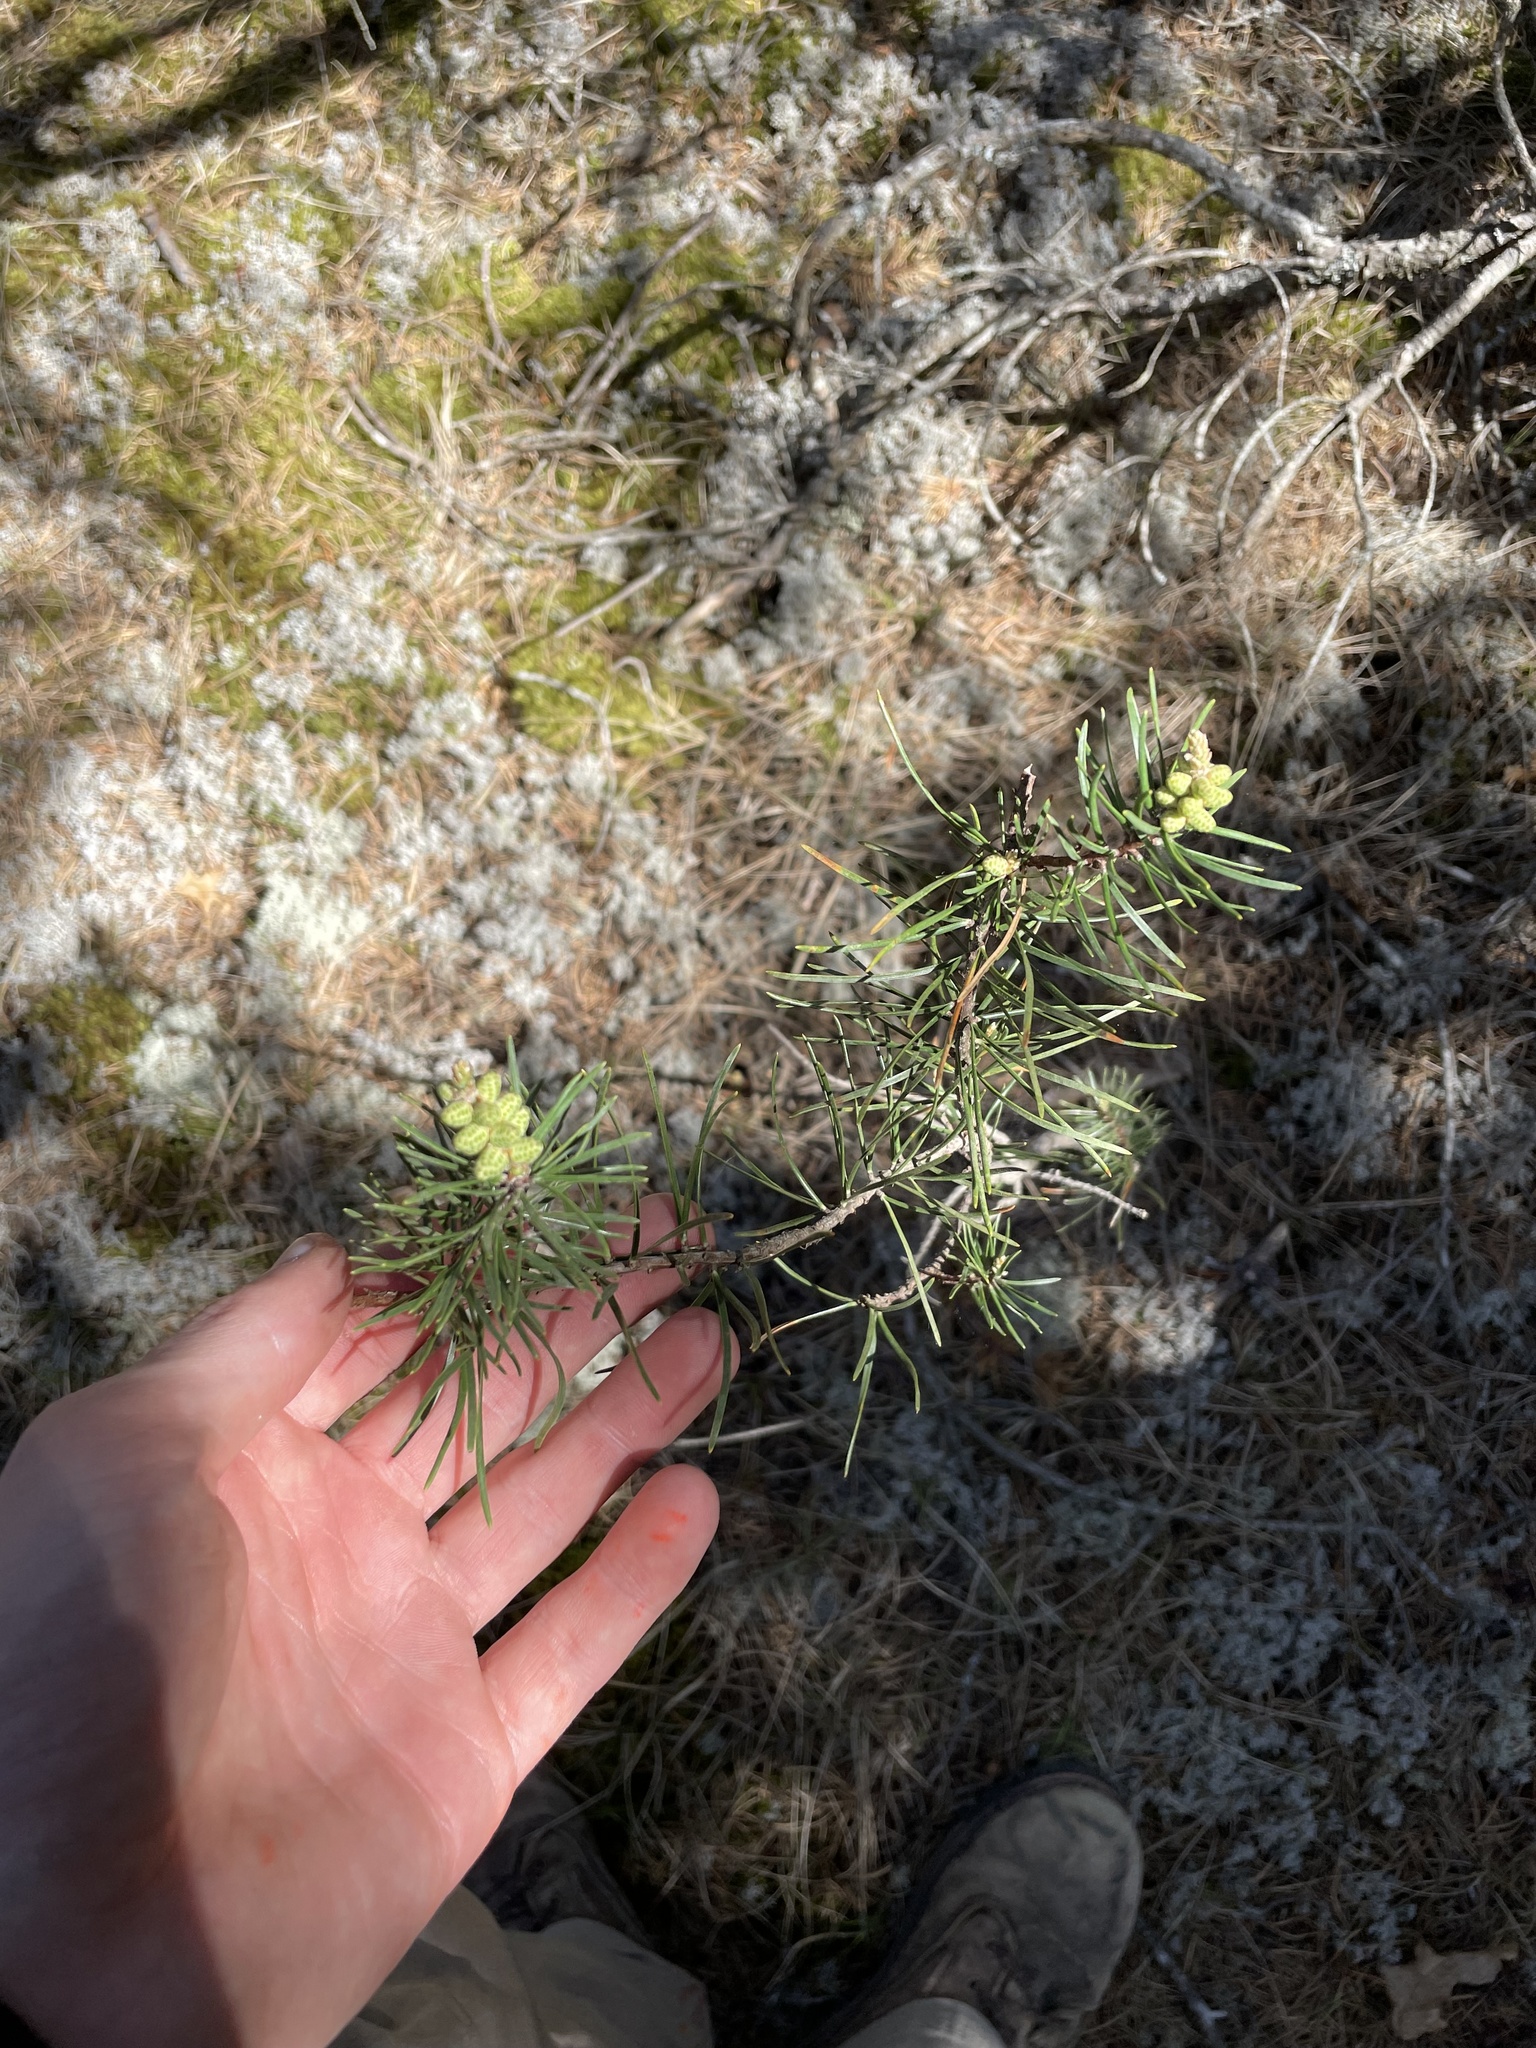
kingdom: Plantae
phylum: Tracheophyta
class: Pinopsida
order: Pinales
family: Pinaceae
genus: Pinus
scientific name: Pinus banksiana
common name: Jack pine
